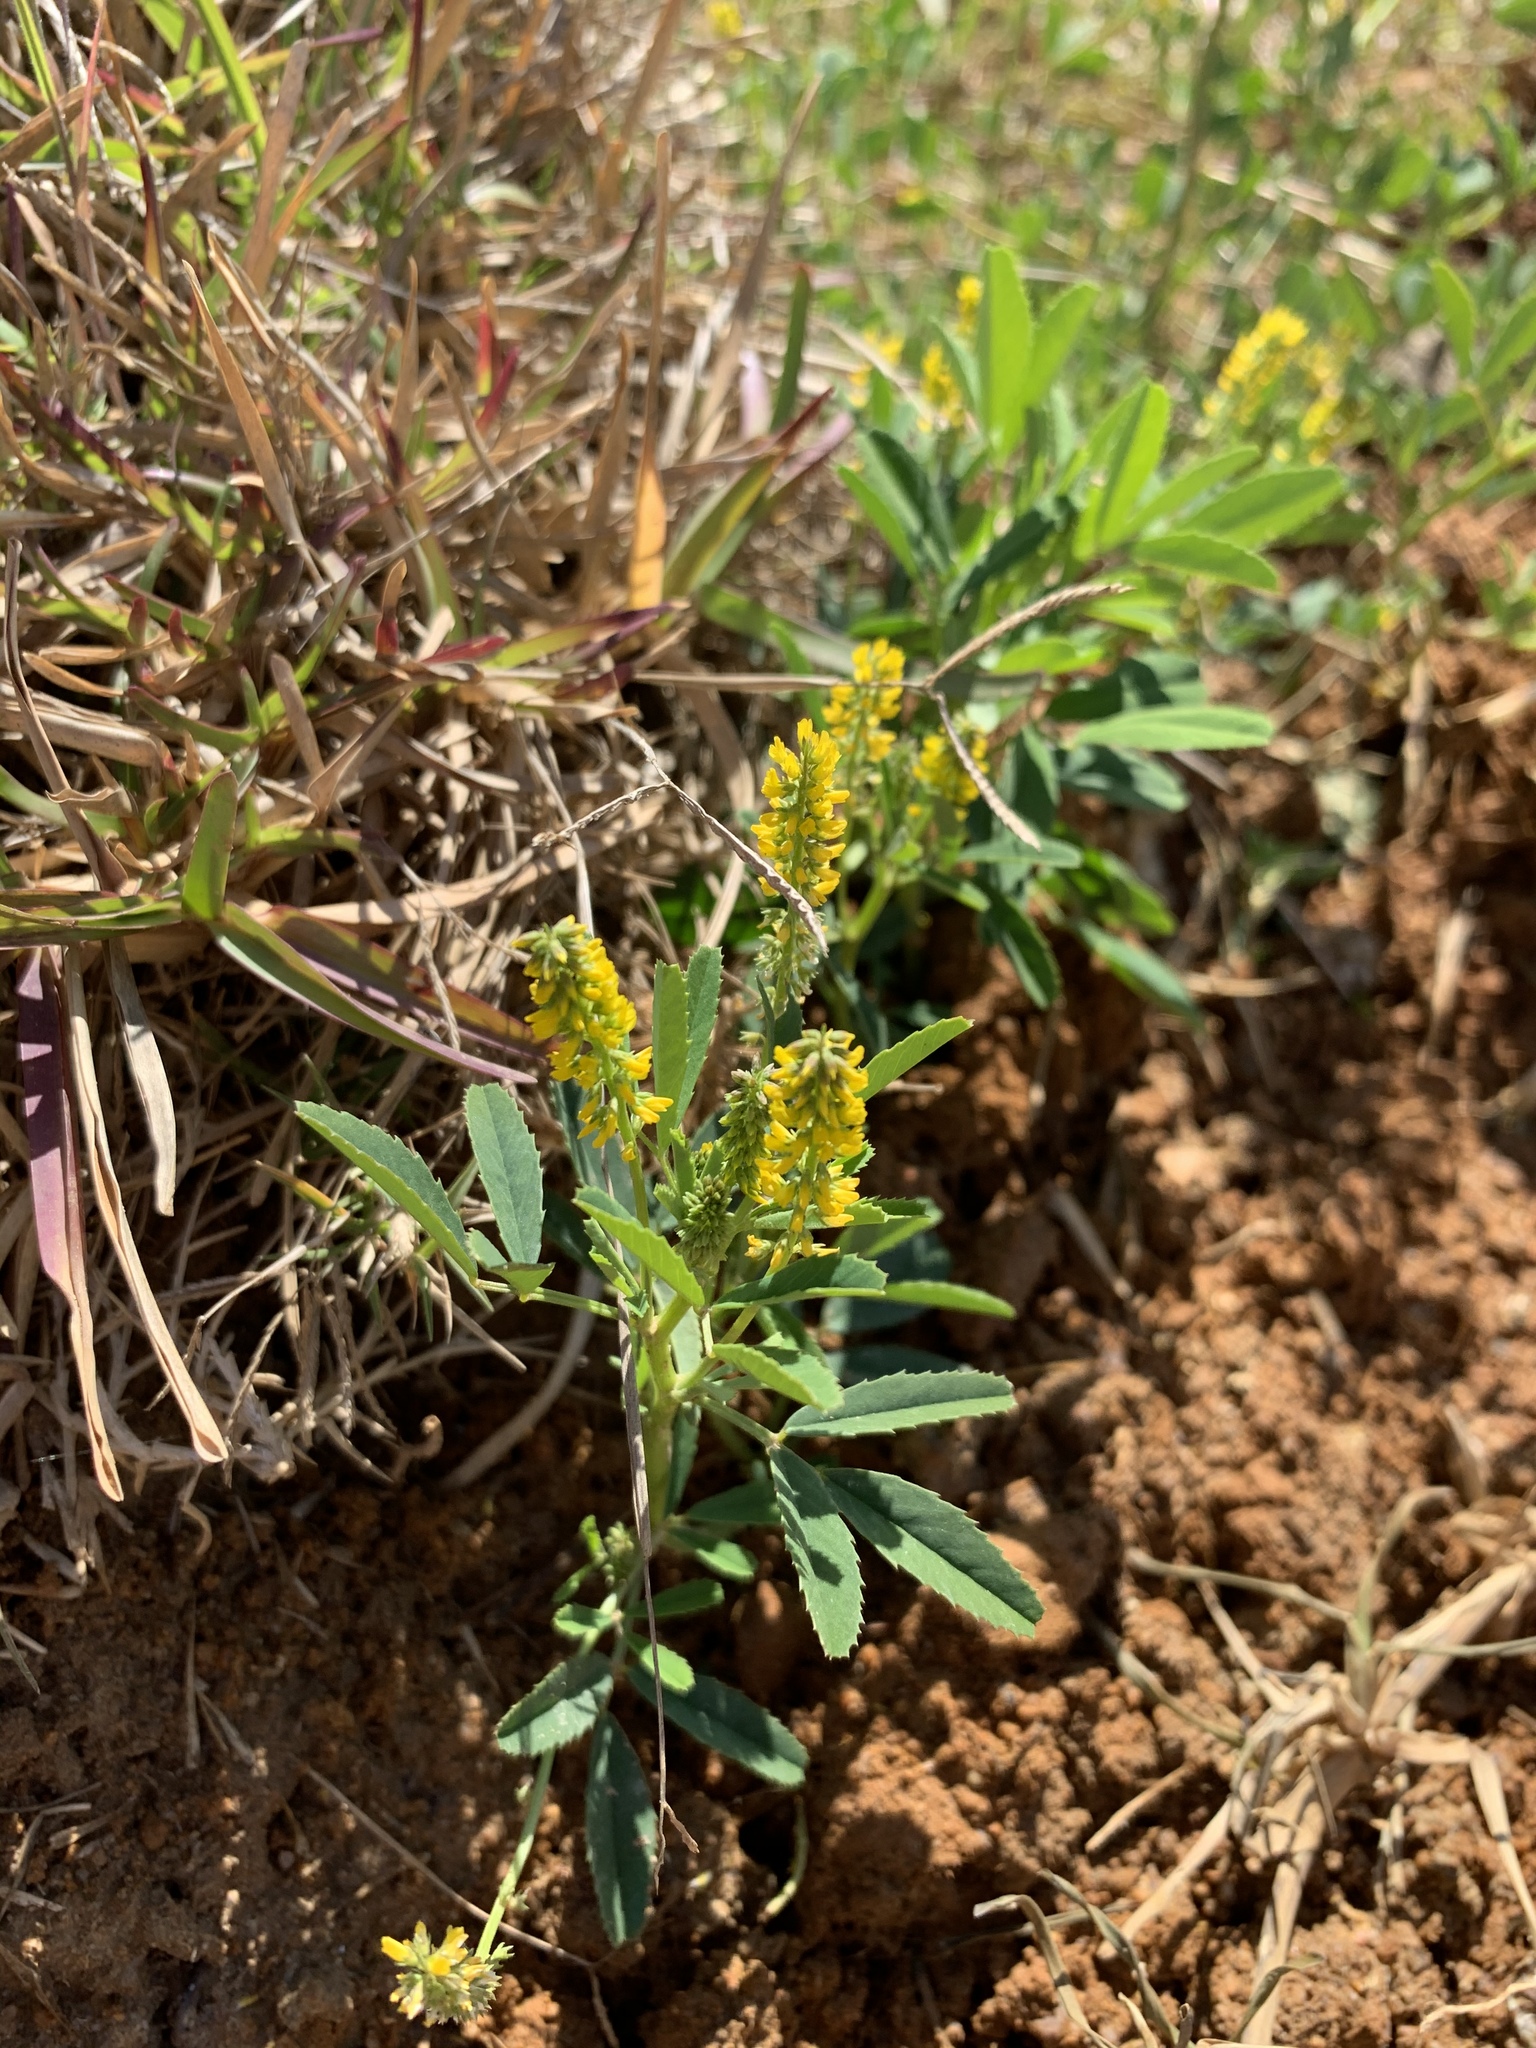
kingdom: Plantae
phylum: Tracheophyta
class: Magnoliopsida
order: Fabales
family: Fabaceae
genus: Melilotus
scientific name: Melilotus indicus
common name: Small melilot
